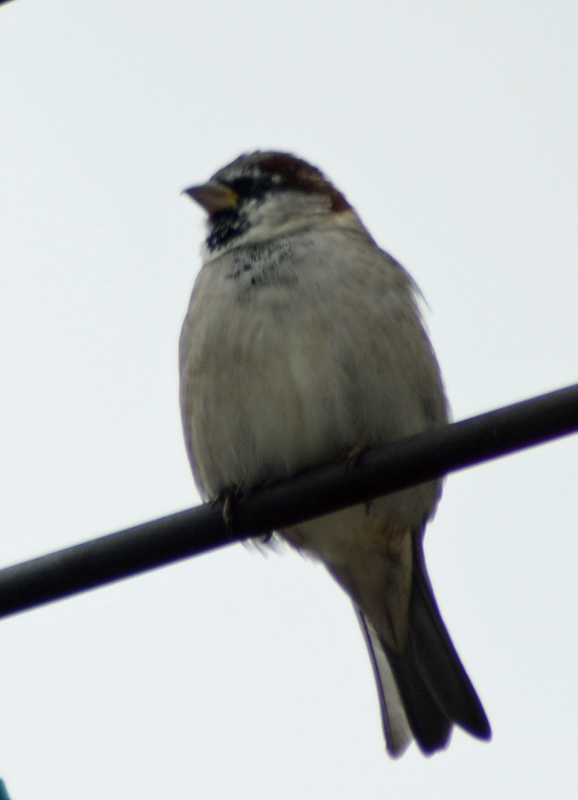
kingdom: Animalia
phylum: Chordata
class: Aves
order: Passeriformes
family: Passeridae
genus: Passer
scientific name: Passer domesticus
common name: House sparrow
